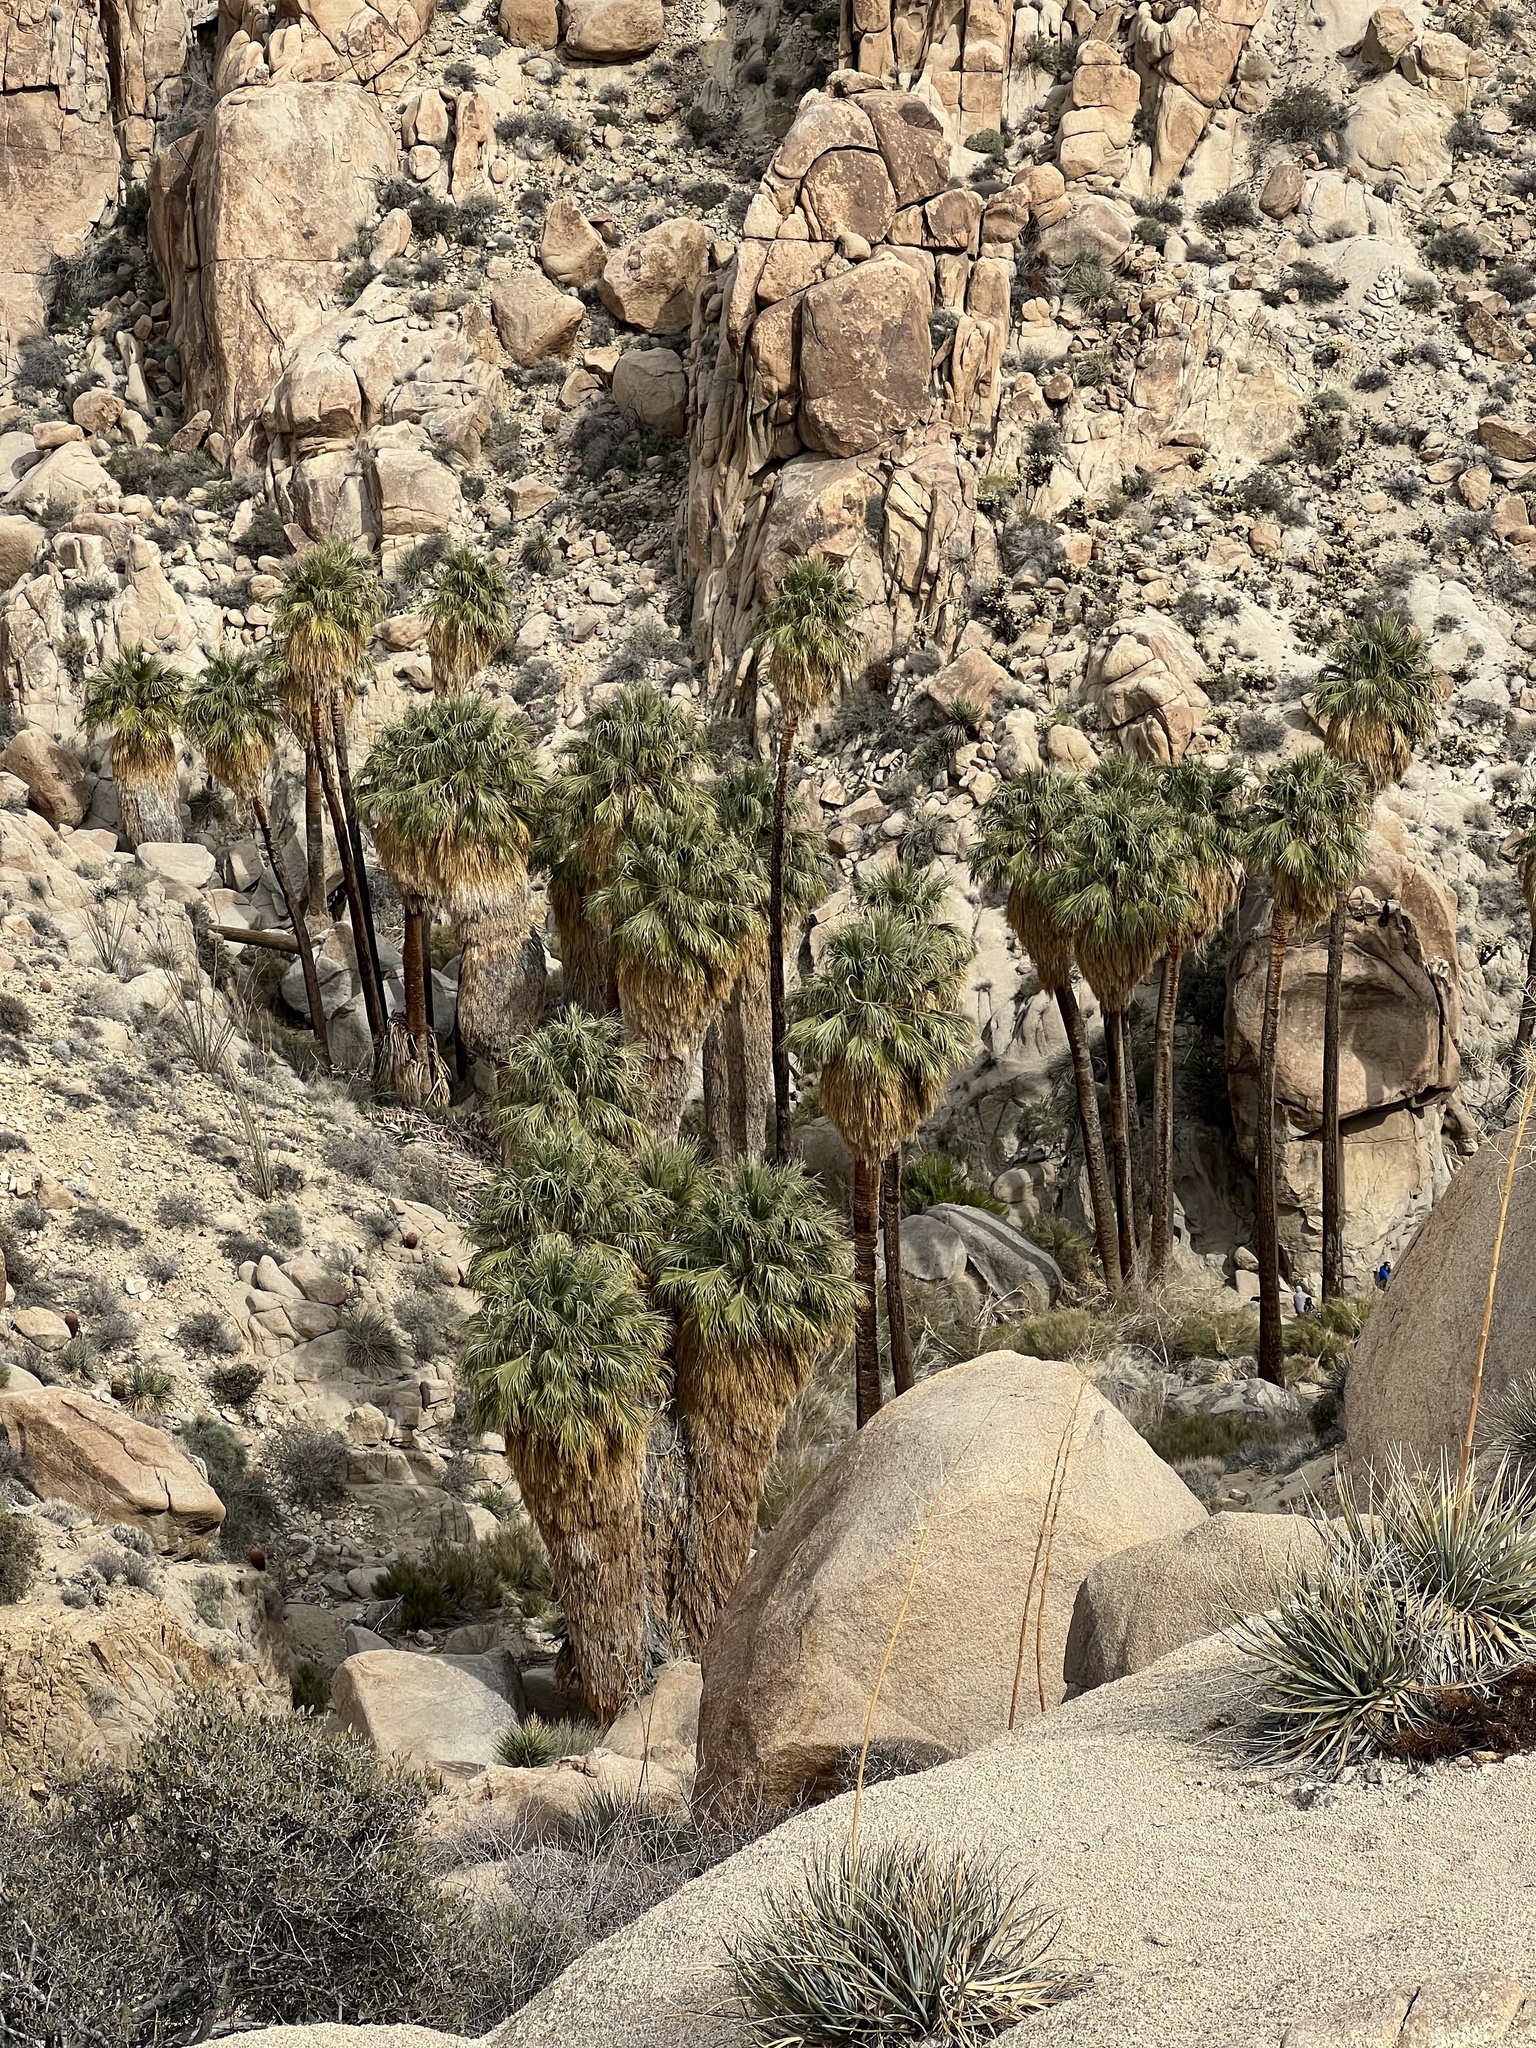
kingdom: Plantae
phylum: Tracheophyta
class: Liliopsida
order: Arecales
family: Arecaceae
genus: Washingtonia
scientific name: Washingtonia filifera
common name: California fan palm
